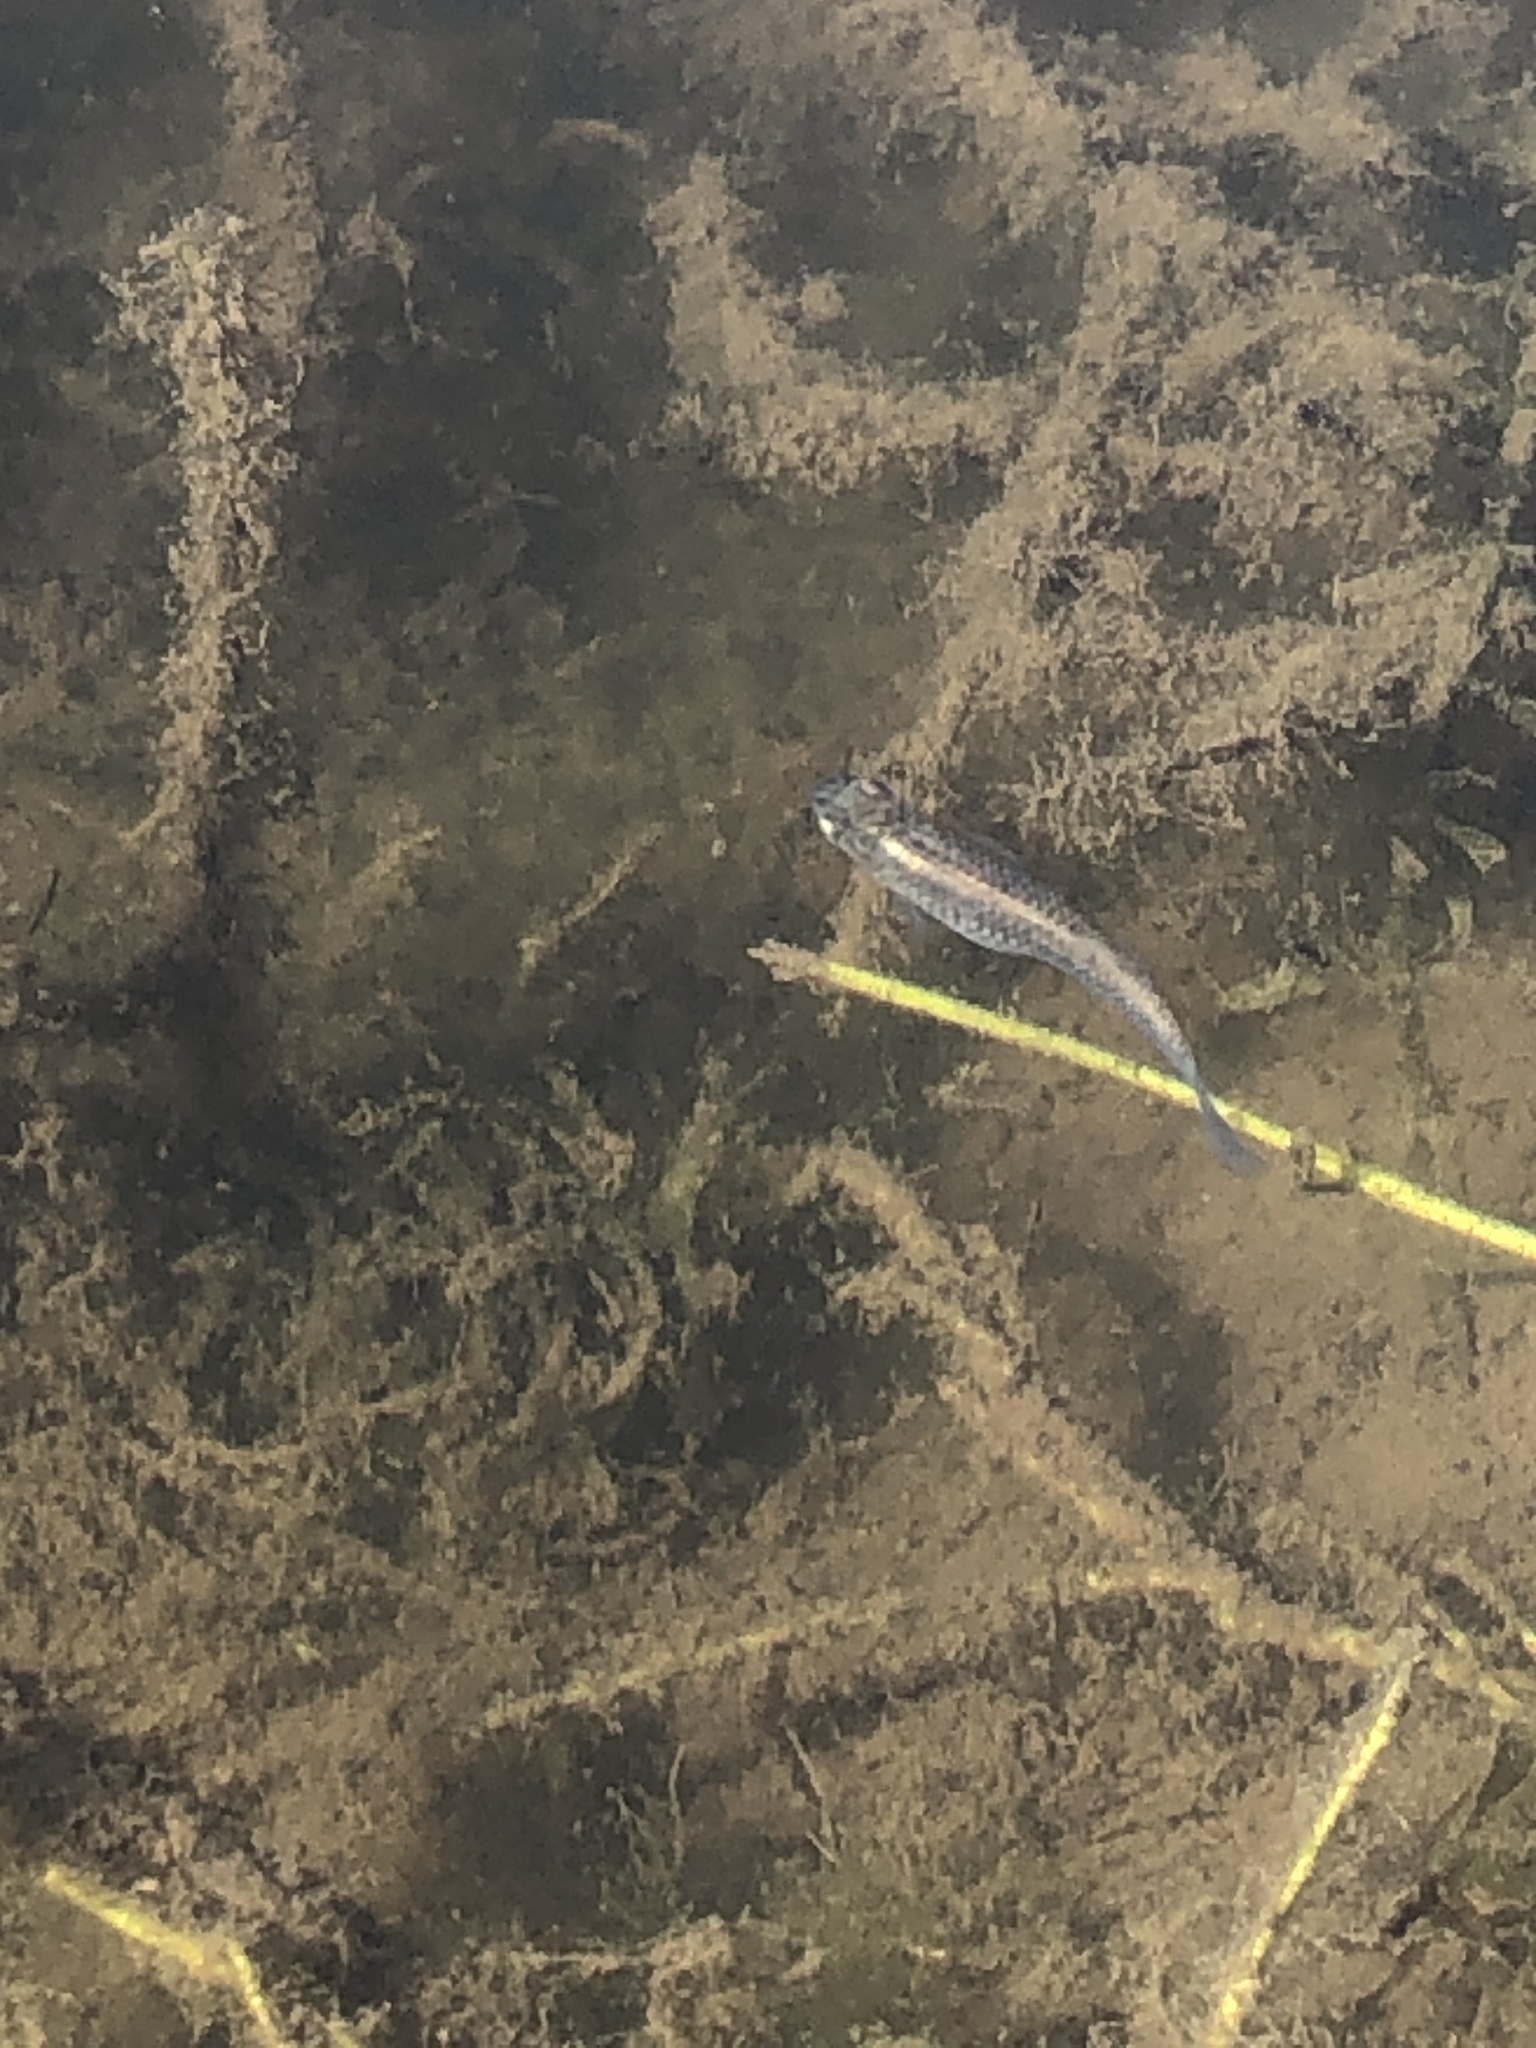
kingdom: Animalia
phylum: Chordata
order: Cyprinodontiformes
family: Poeciliidae
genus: Gambusia
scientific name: Gambusia affinis
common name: Mosquitofish
